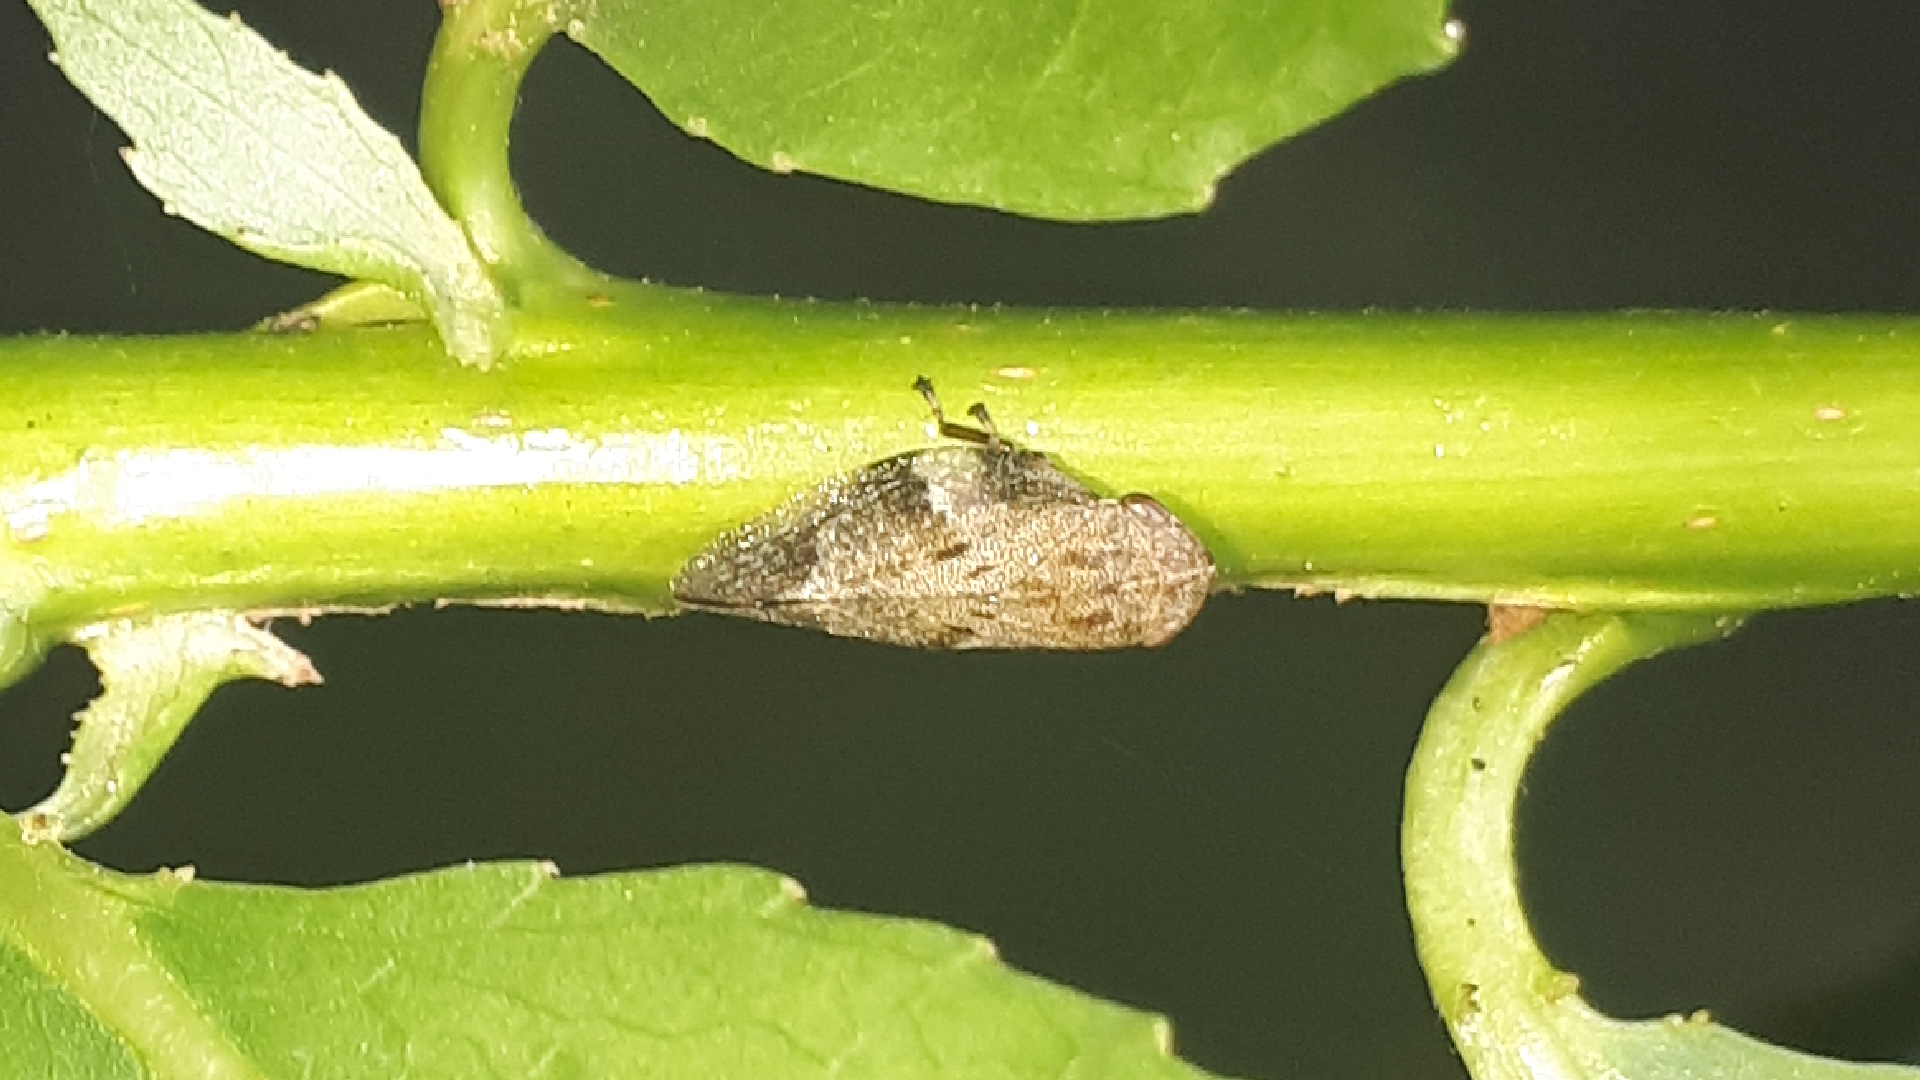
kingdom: Animalia
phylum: Arthropoda
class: Insecta
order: Hemiptera
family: Aphrophoridae
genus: Aphrophora
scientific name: Aphrophora alni
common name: European alder spittlebug
